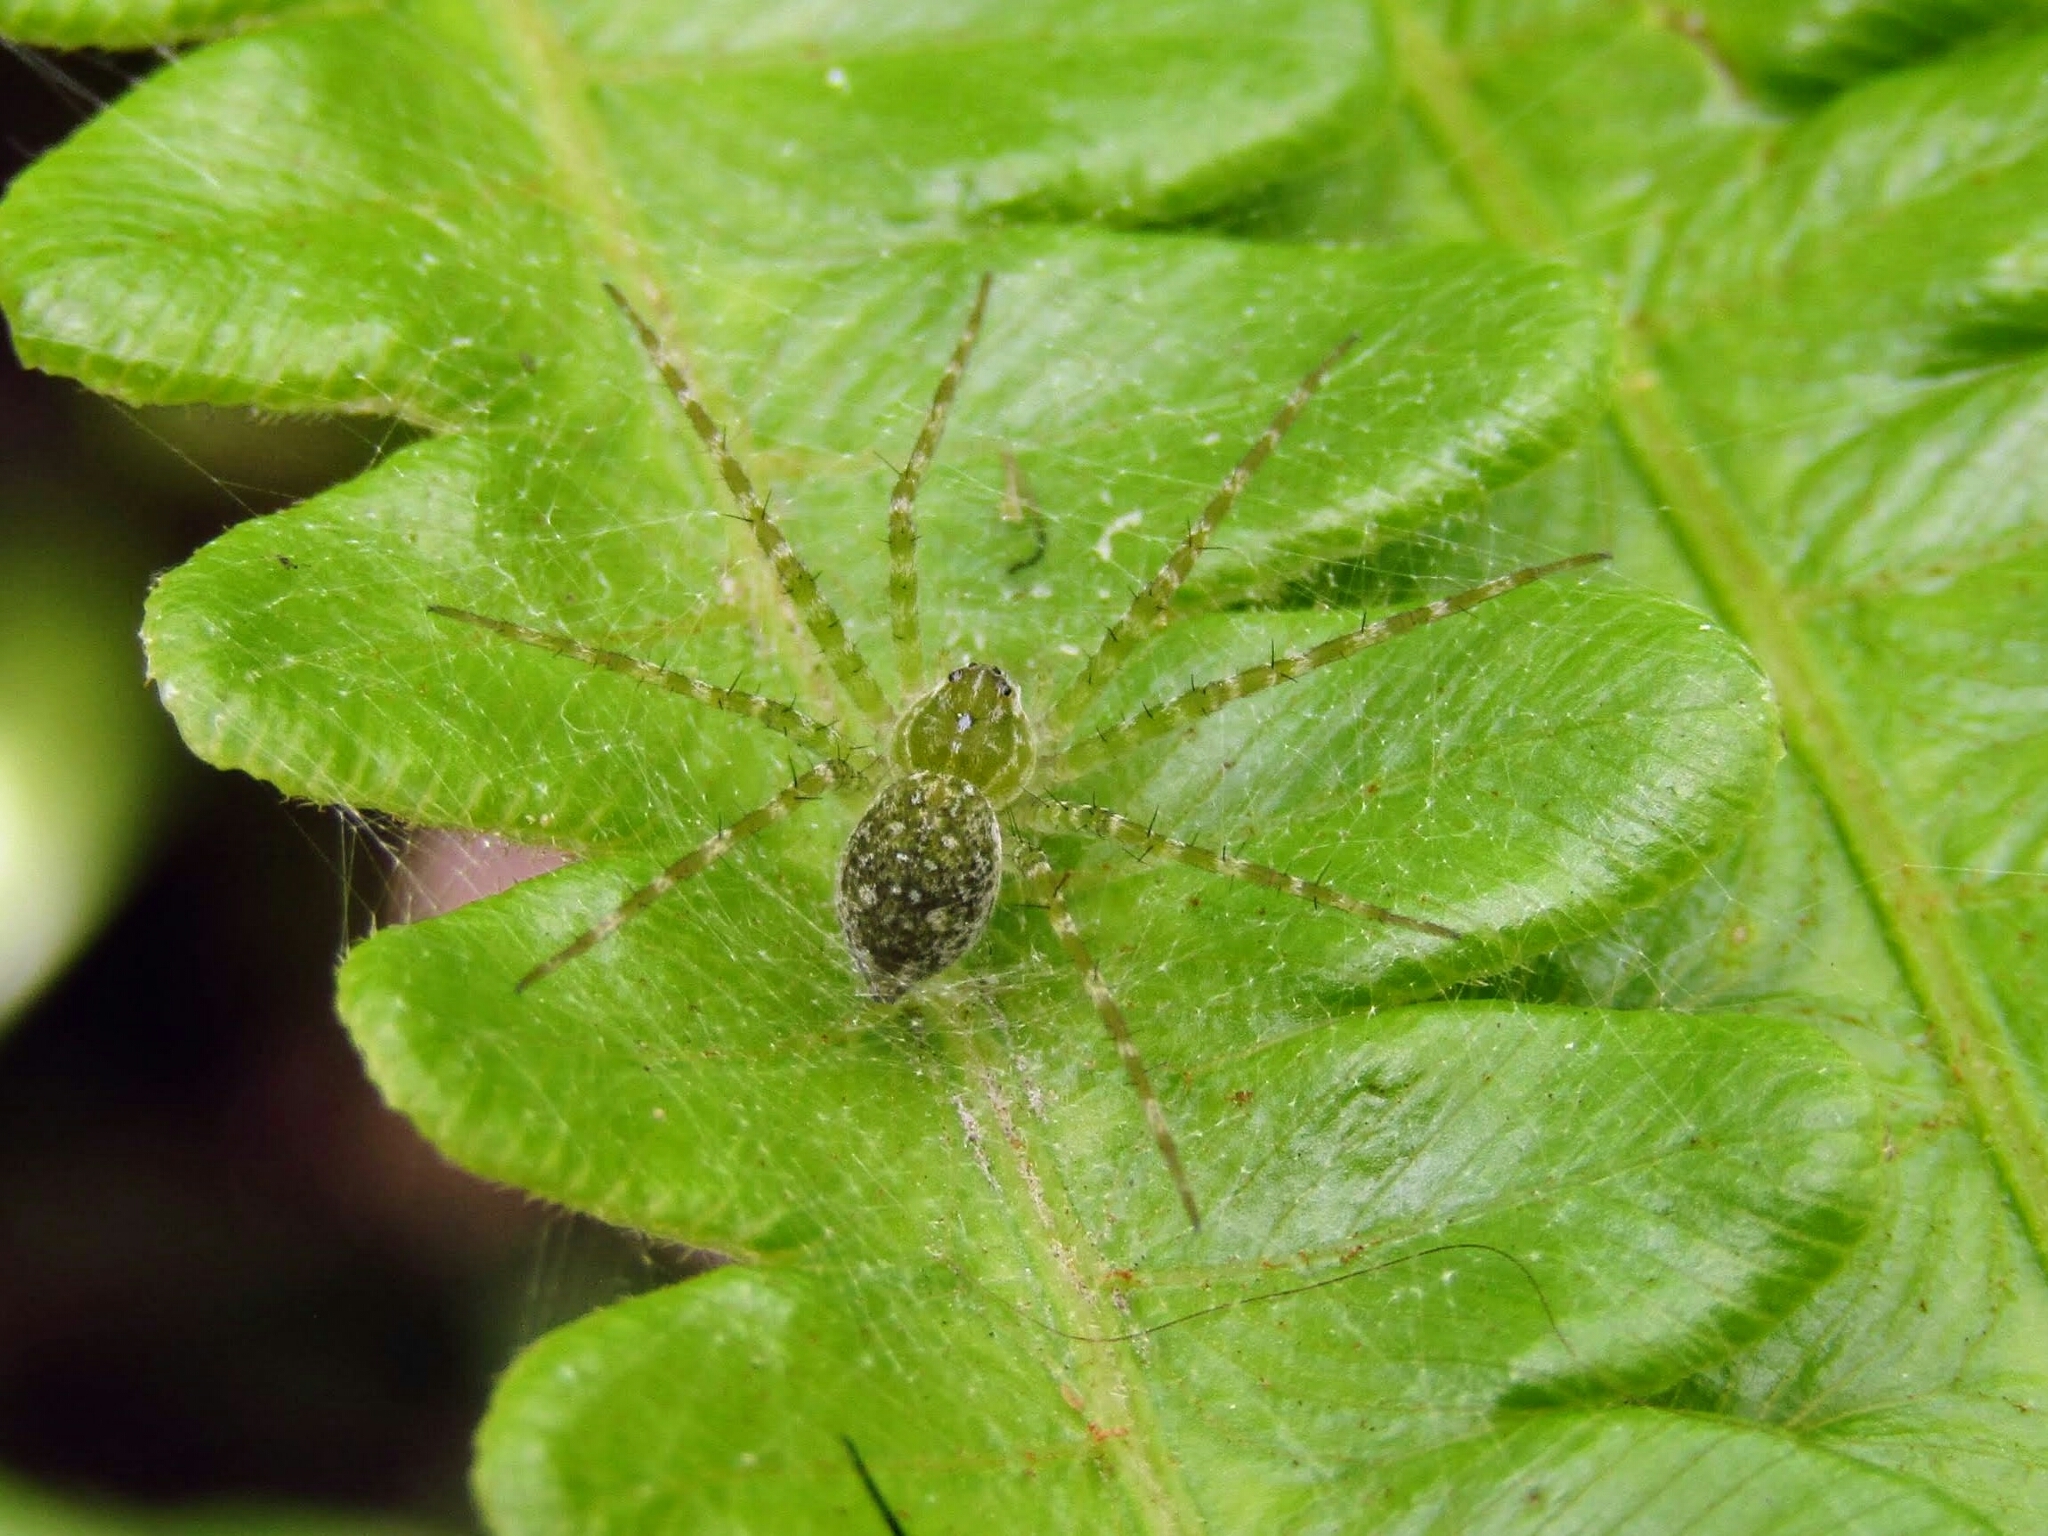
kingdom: Animalia
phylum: Arthropoda
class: Arachnida
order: Araneae
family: Pisauridae
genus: Thaumasia
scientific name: Thaumasia velox
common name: Nursery web spiders
